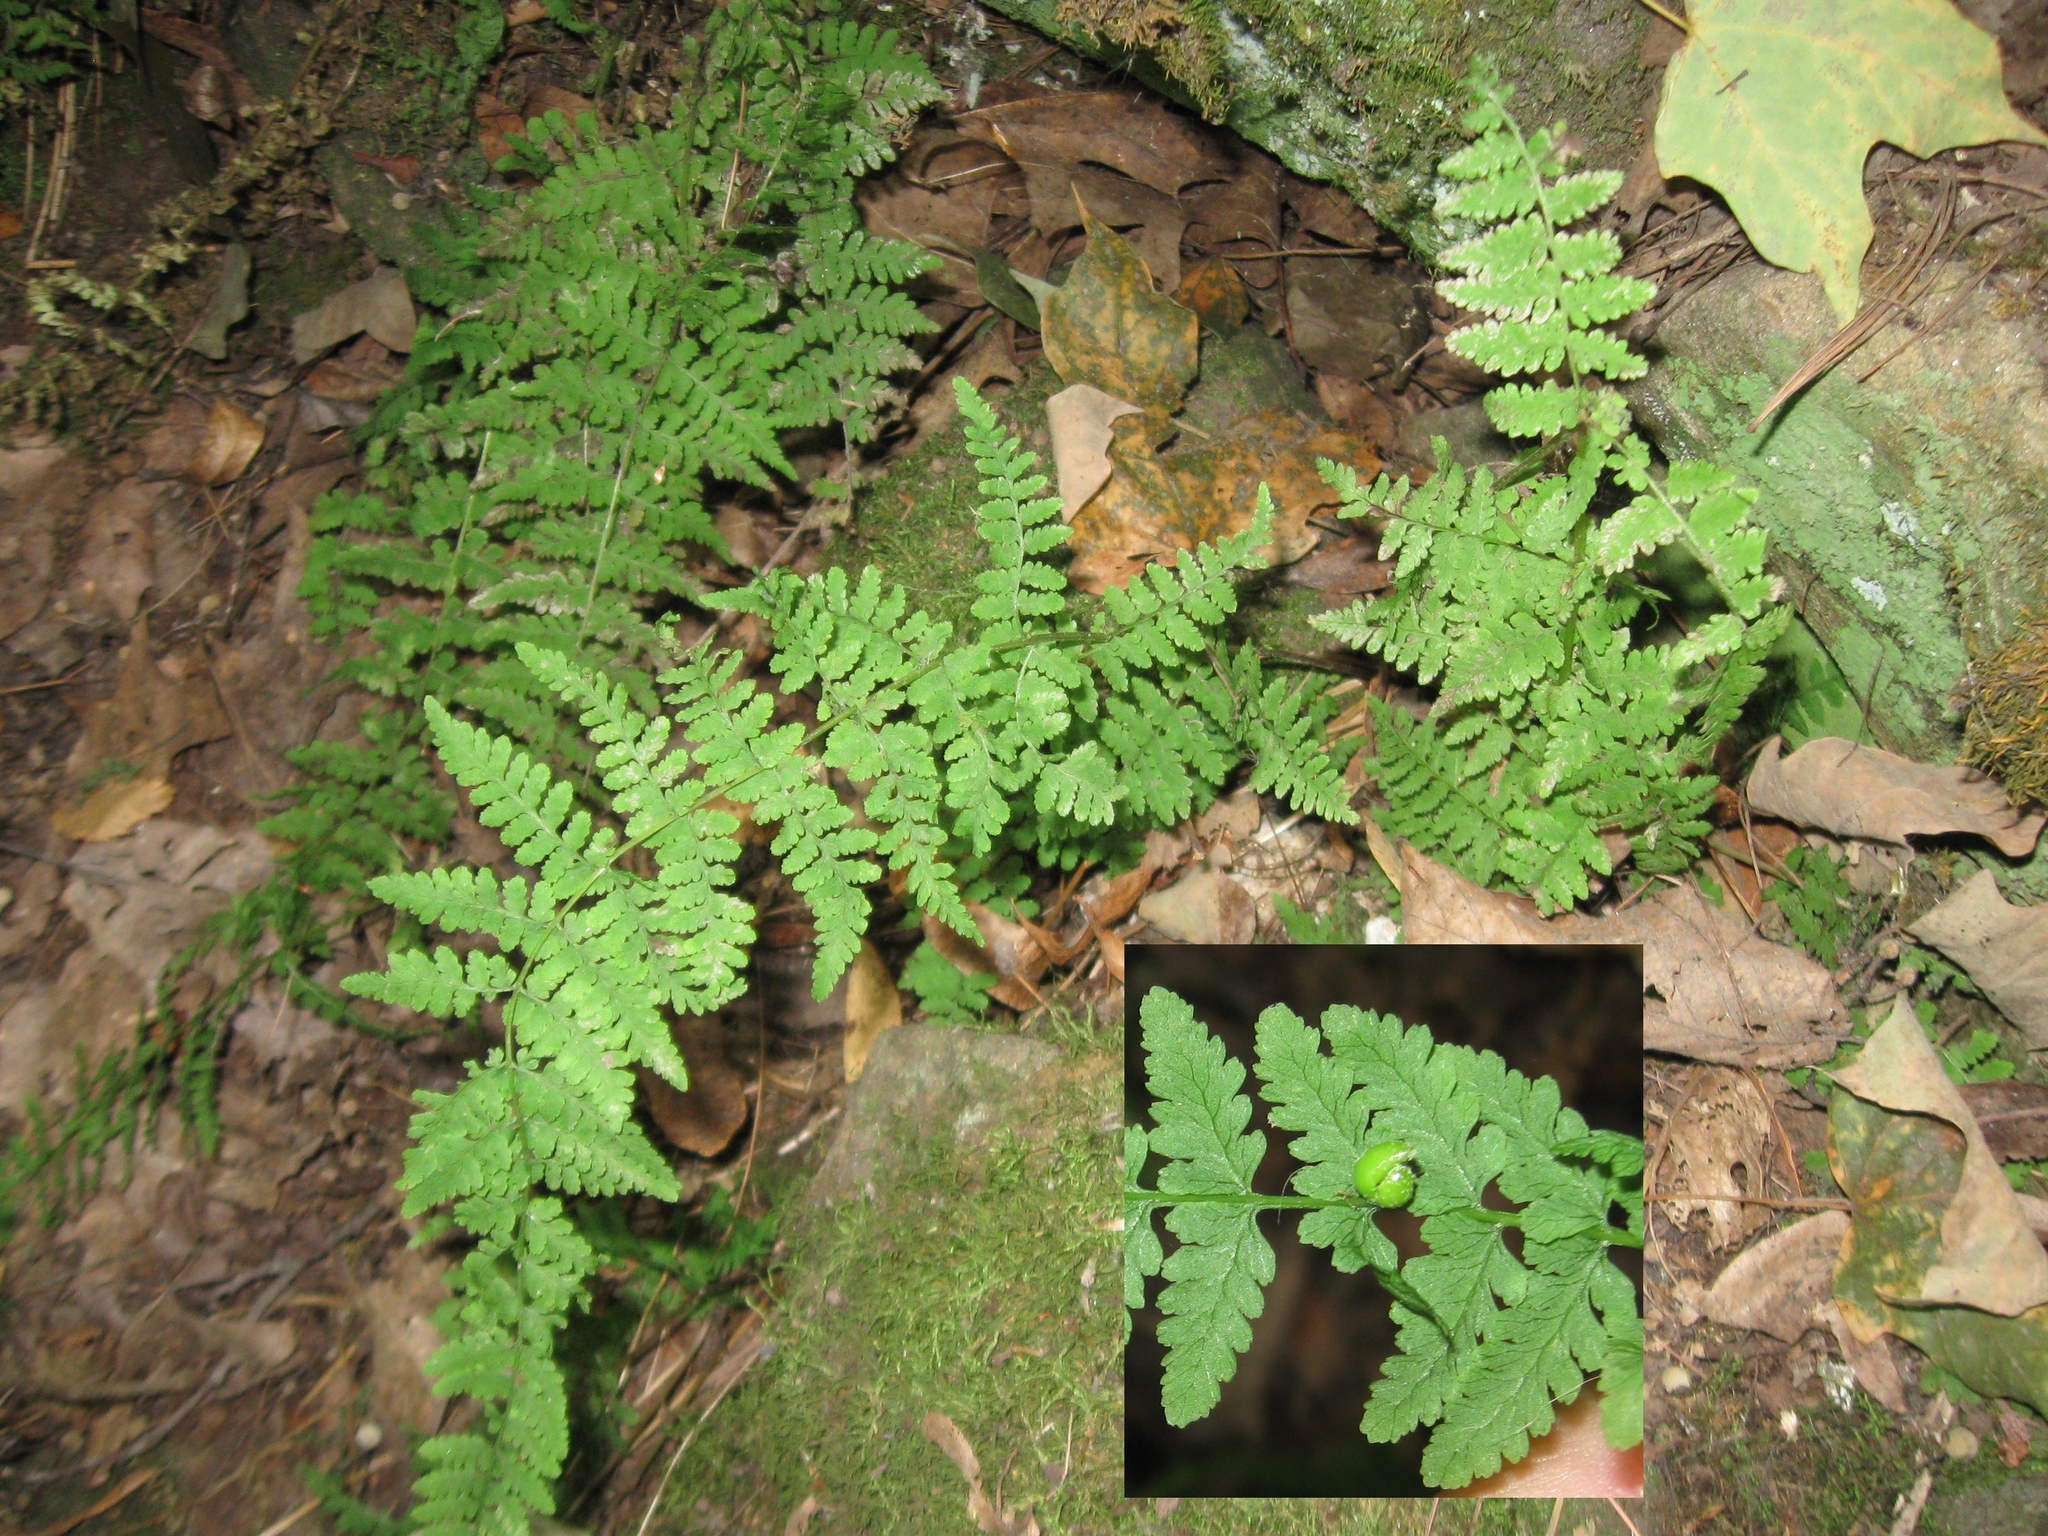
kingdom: Plantae
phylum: Tracheophyta
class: Polypodiopsida
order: Polypodiales
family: Cystopteridaceae
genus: Cystopteris
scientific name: Cystopteris bulbifera
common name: Bulblet bladder fern
